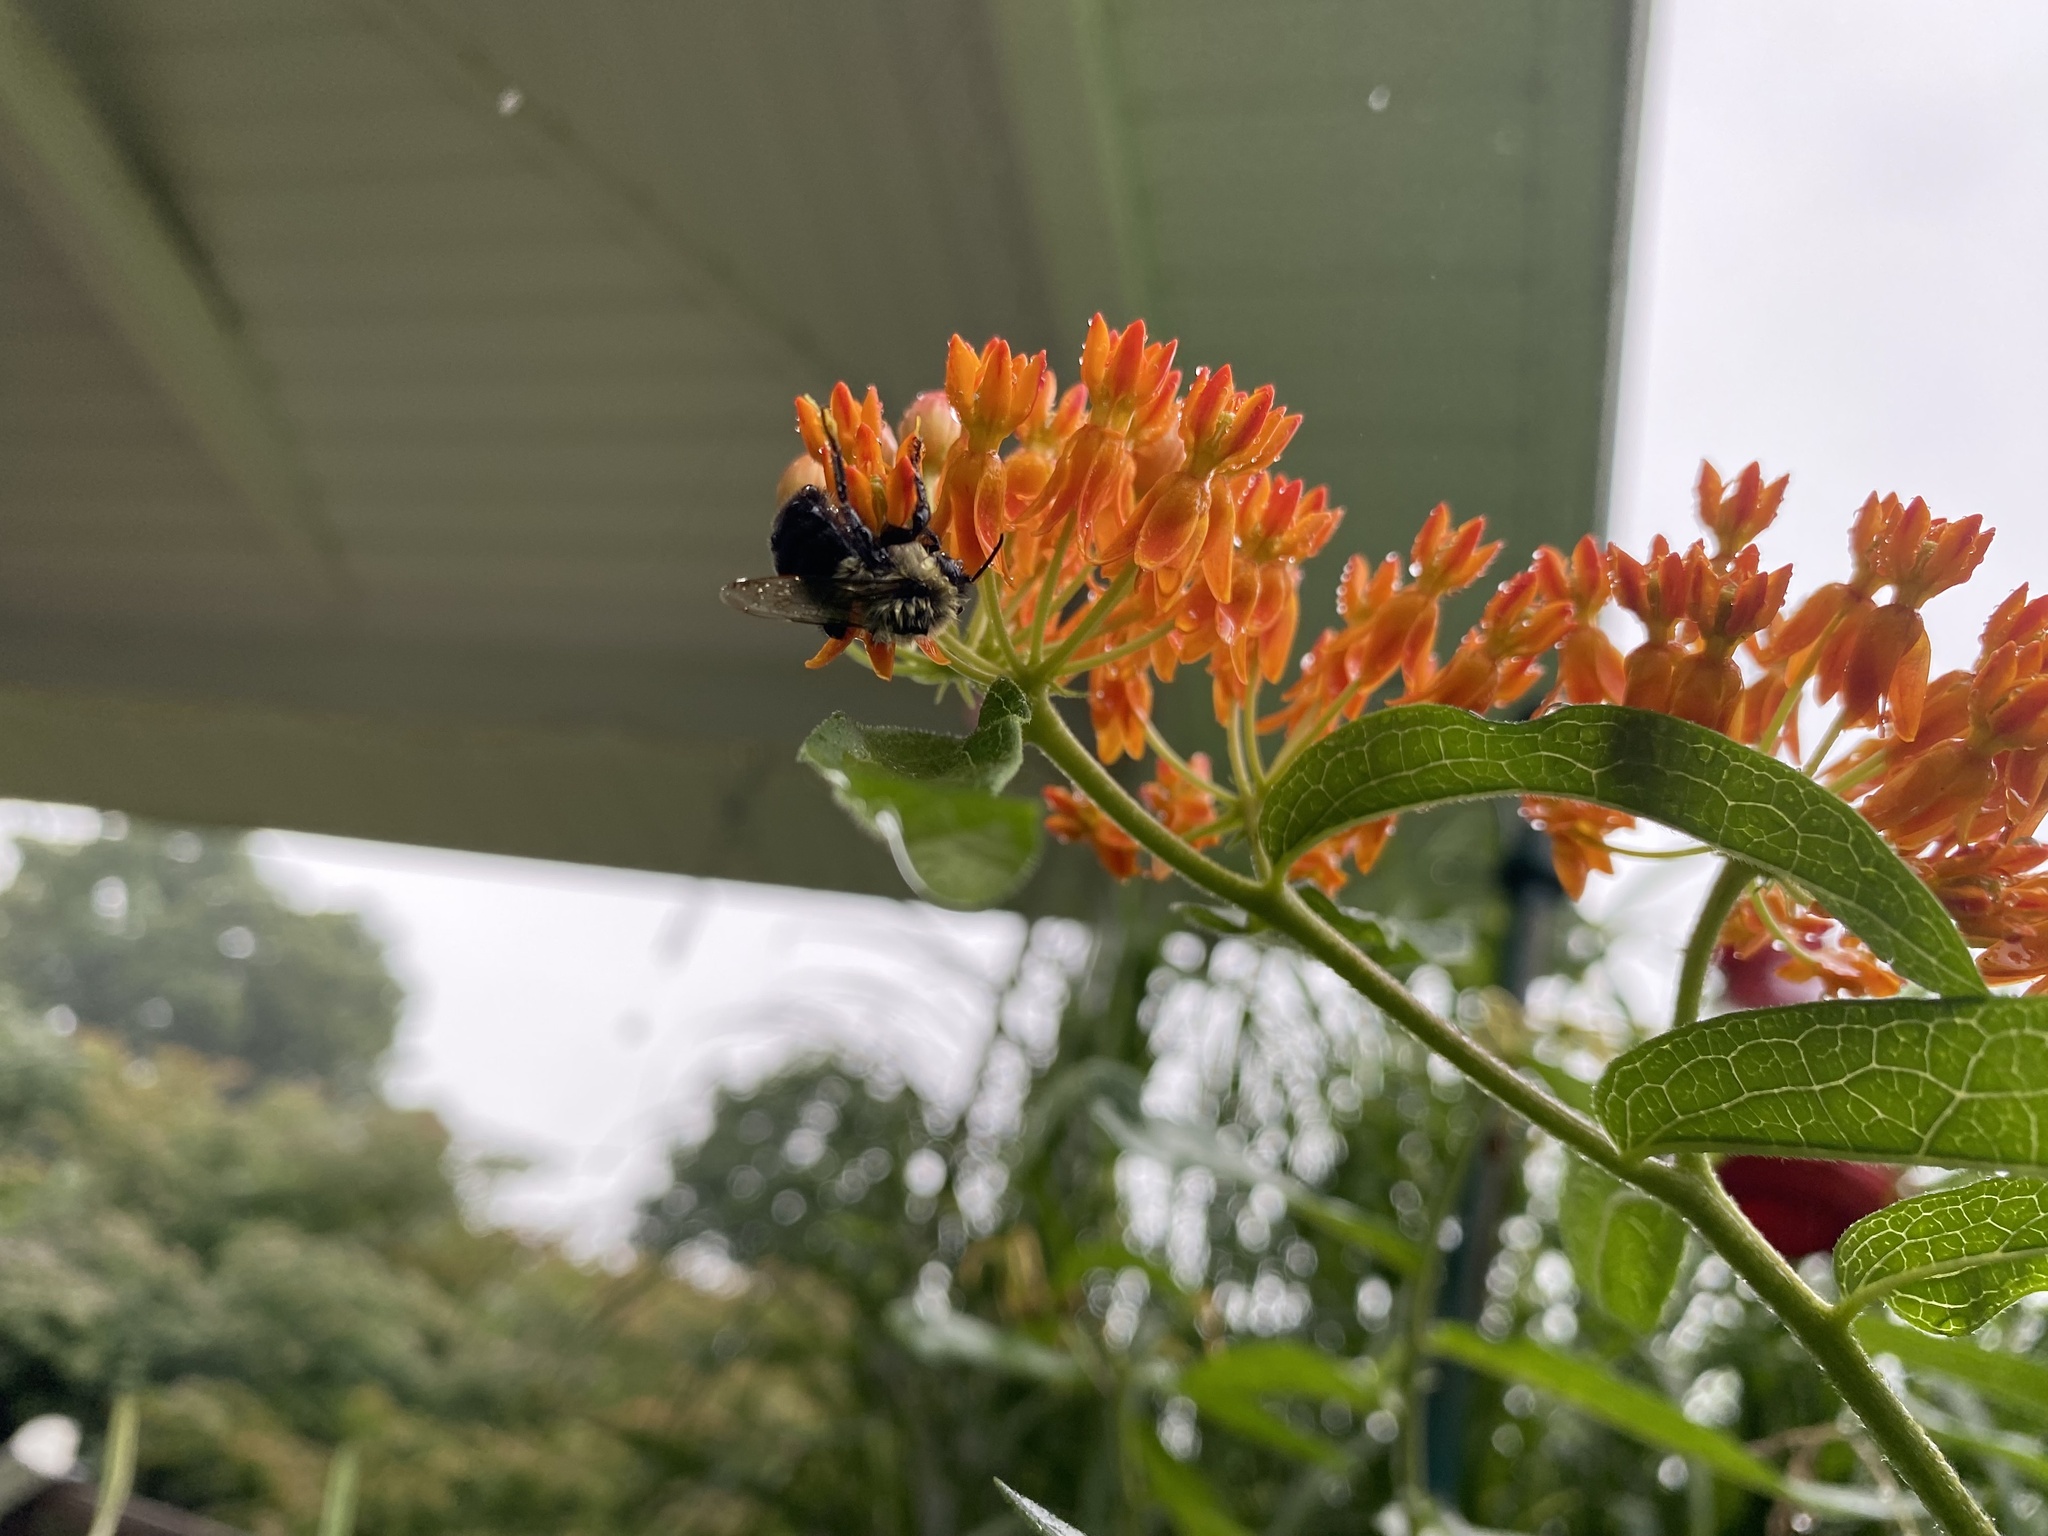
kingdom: Animalia
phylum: Arthropoda
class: Insecta
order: Hymenoptera
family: Apidae
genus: Bombus
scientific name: Bombus impatiens
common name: Common eastern bumble bee
